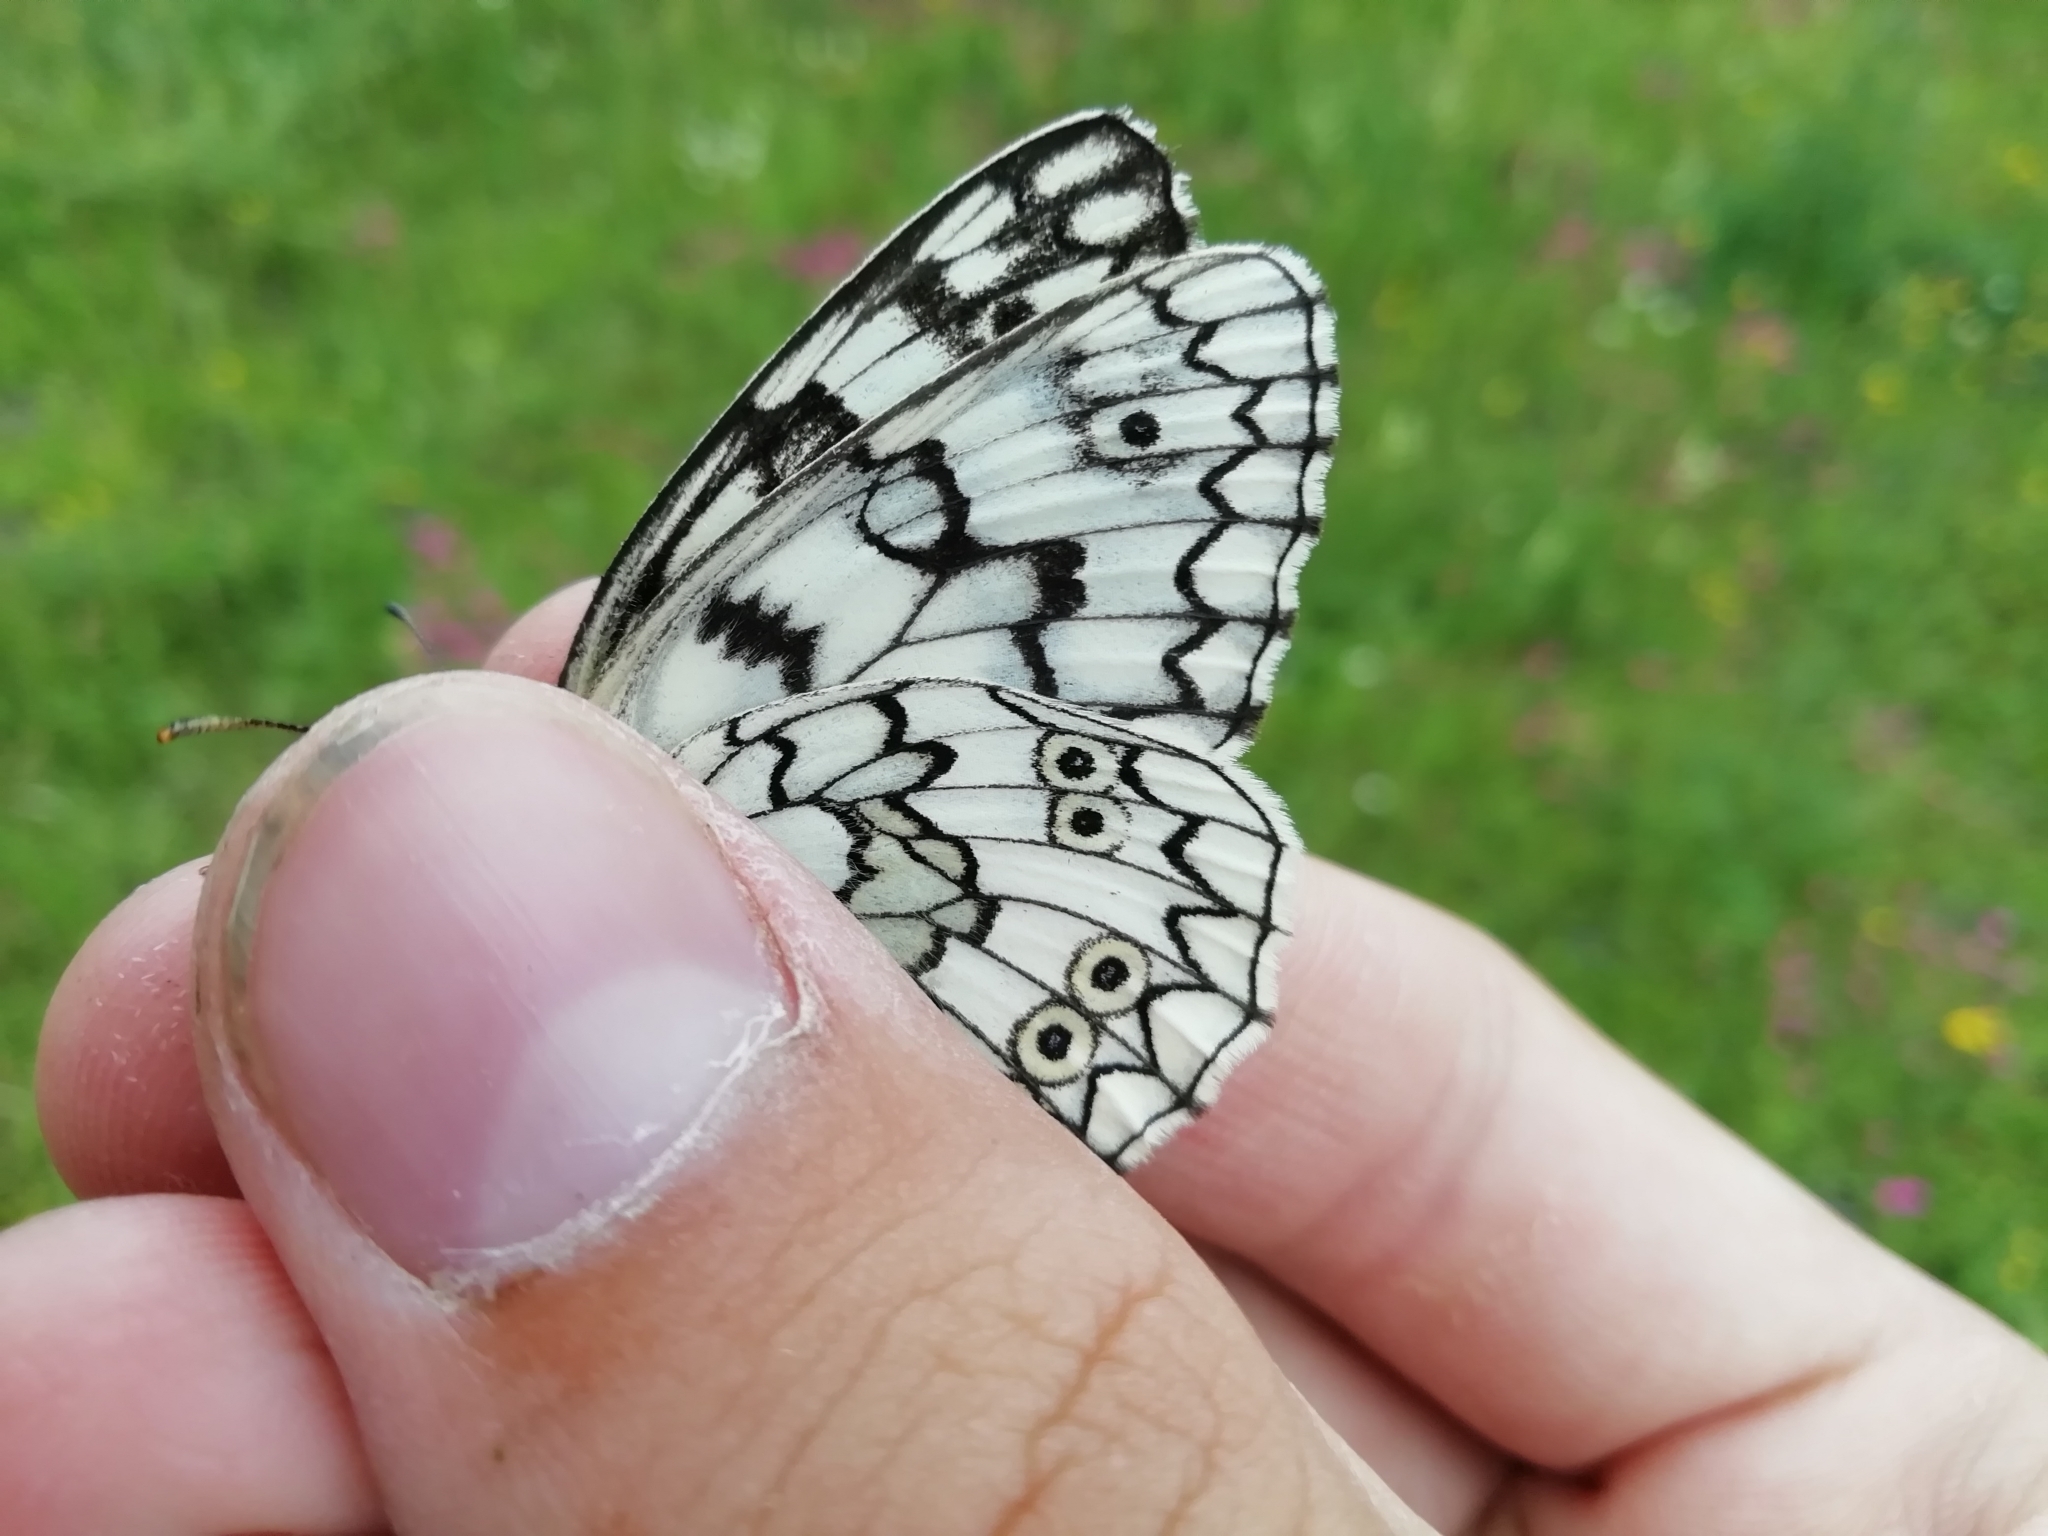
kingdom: Animalia
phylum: Arthropoda
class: Insecta
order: Lepidoptera
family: Nymphalidae
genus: Melanargia
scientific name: Melanargia japygia
